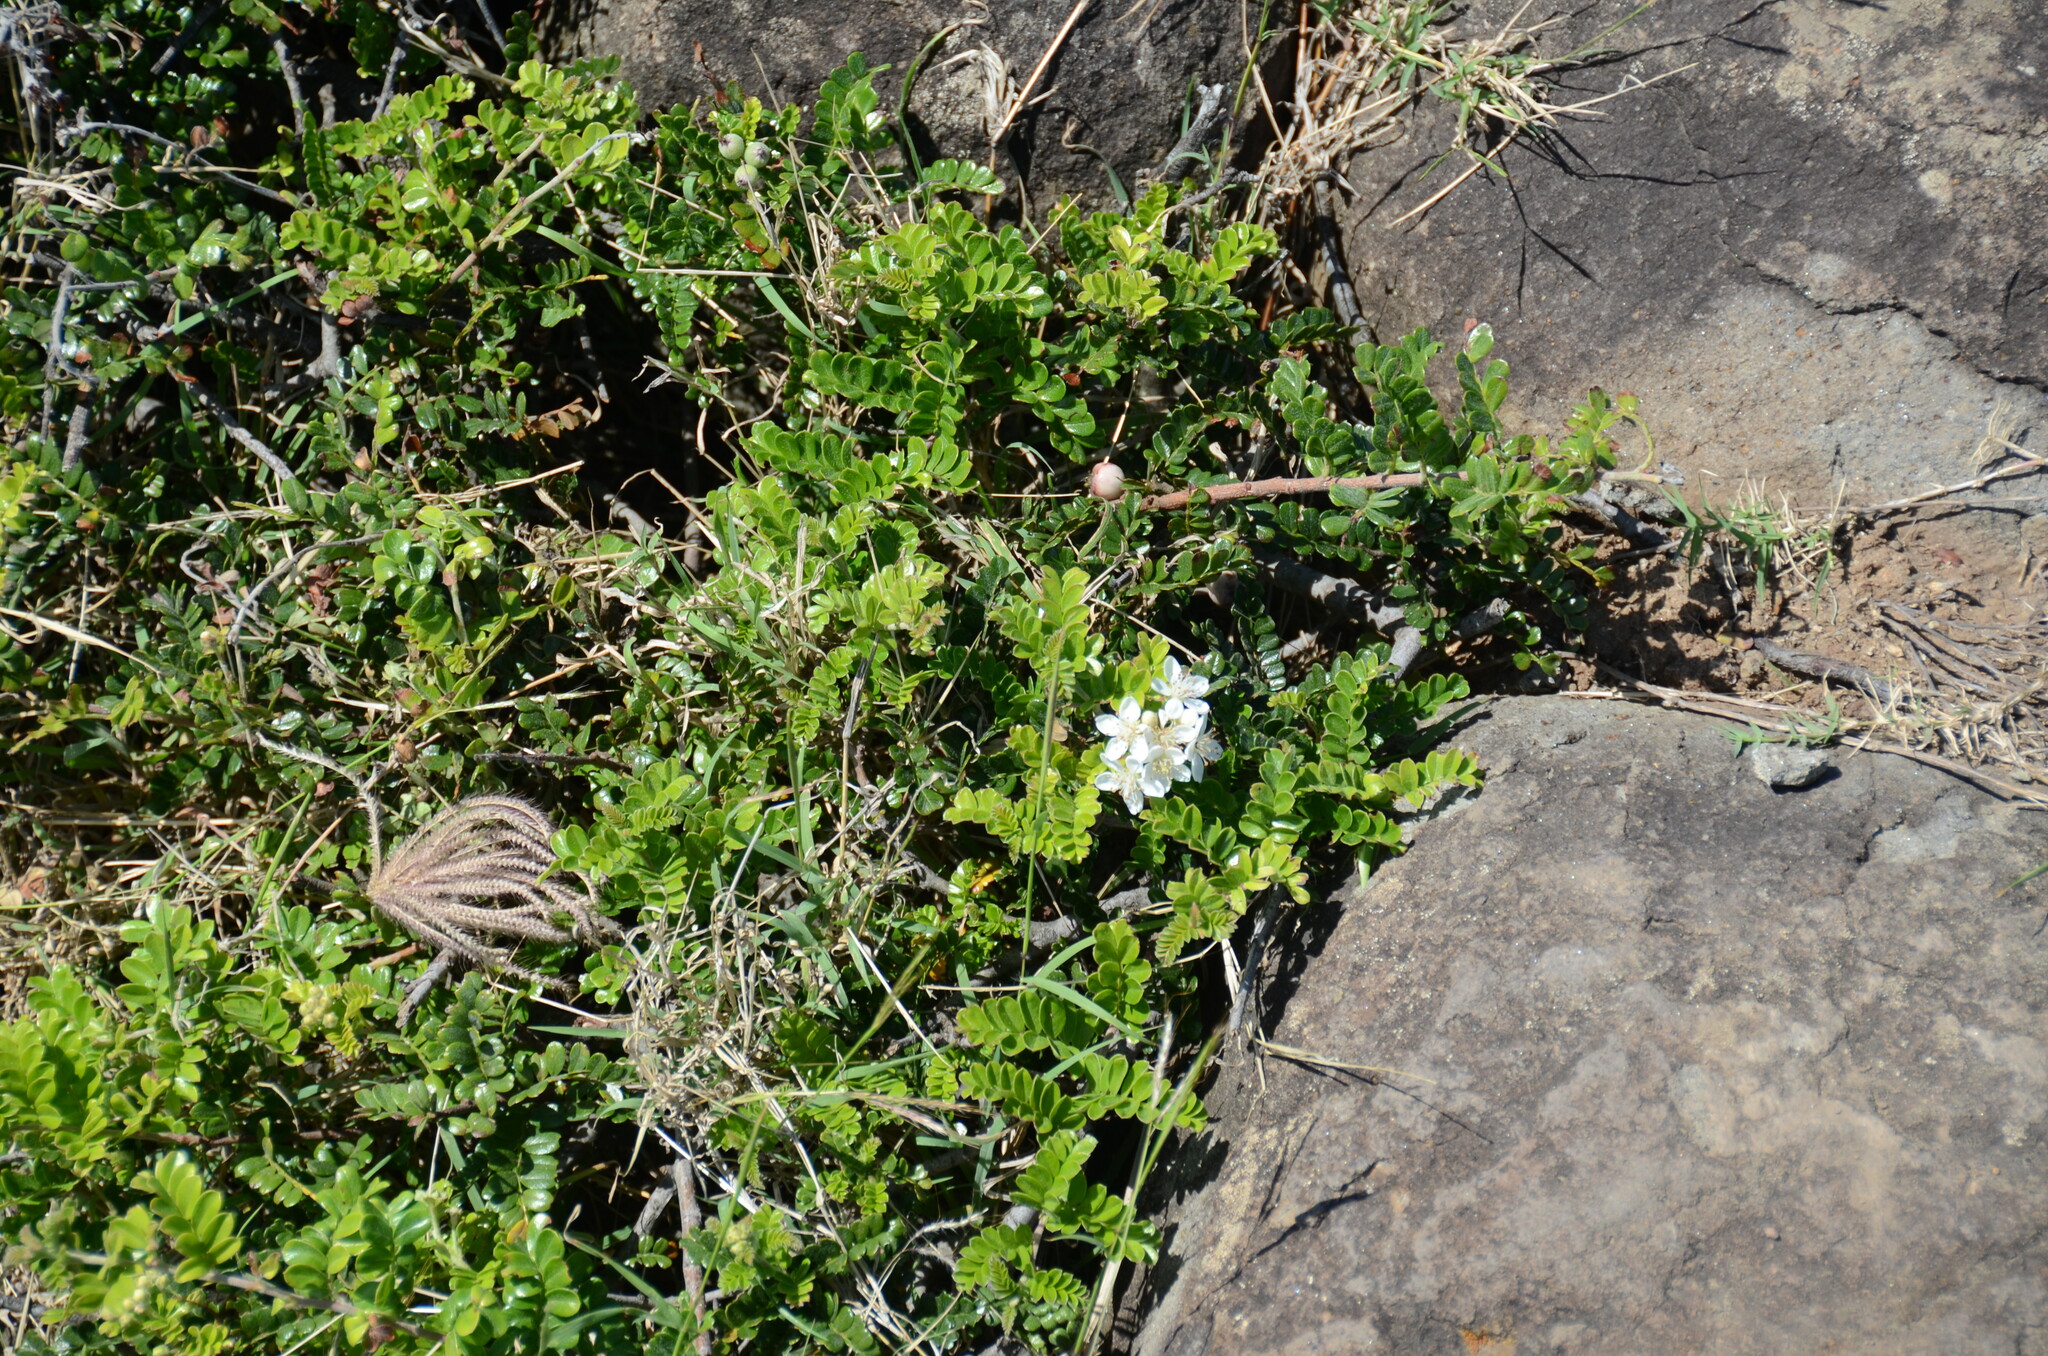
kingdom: Plantae
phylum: Tracheophyta
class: Magnoliopsida
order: Rosales
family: Rosaceae
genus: Osteomeles
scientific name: Osteomeles anthyllidifolia
